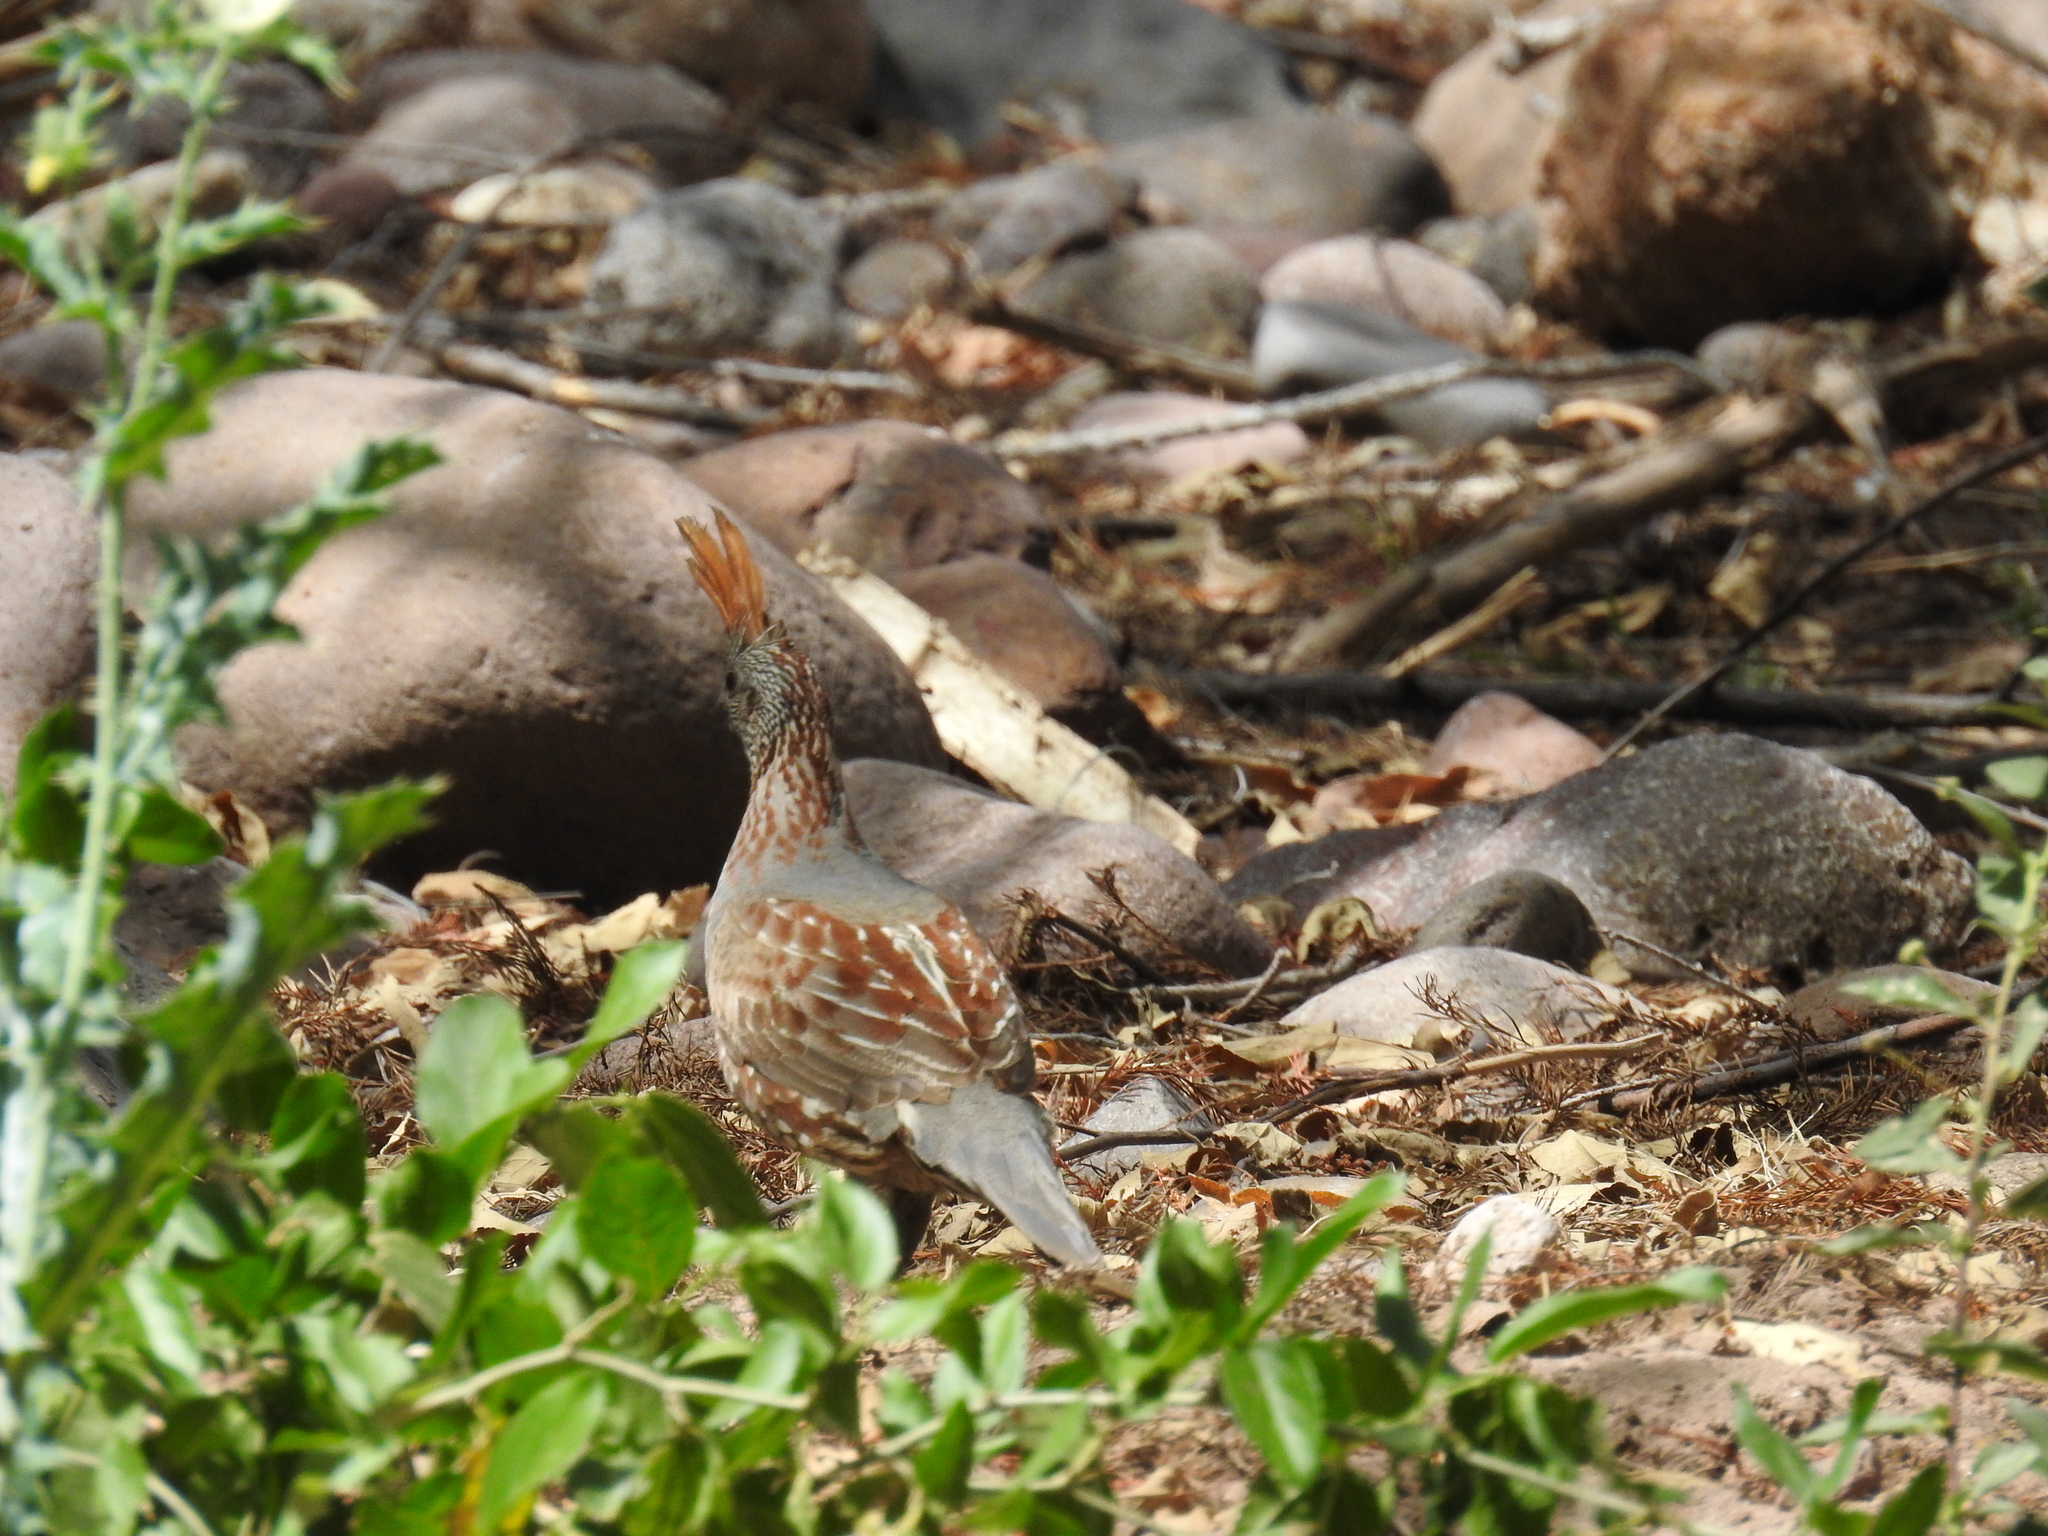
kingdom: Animalia
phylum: Chordata
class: Aves
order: Galliformes
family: Odontophoridae
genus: Callipepla
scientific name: Callipepla douglasii
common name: Elegant quail
